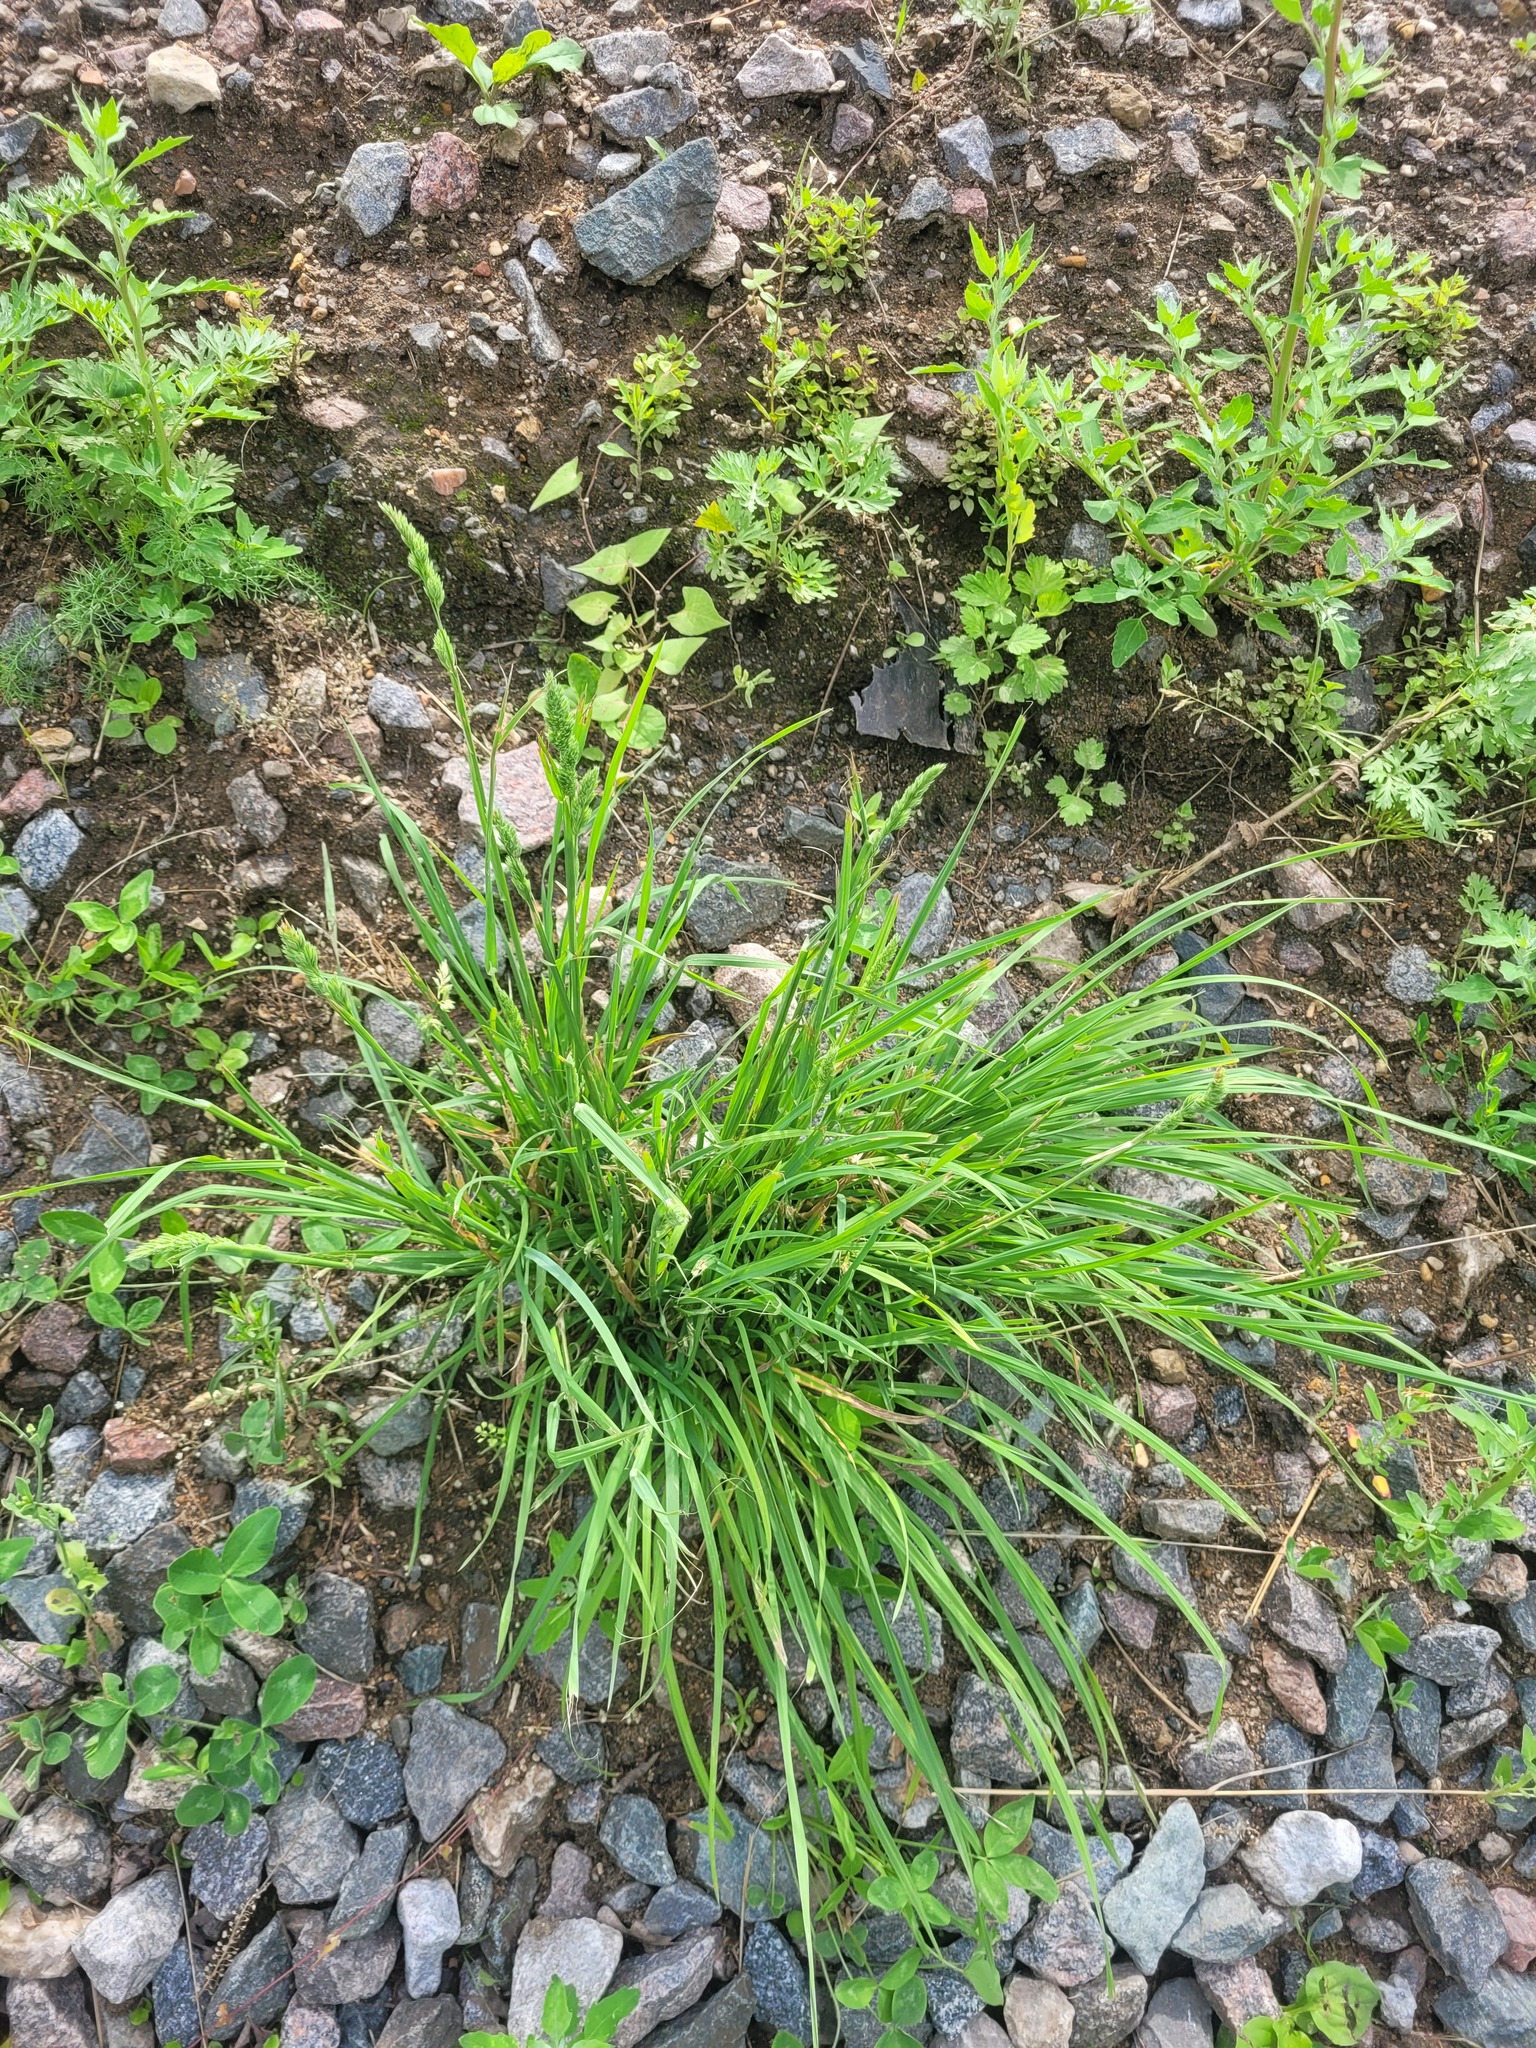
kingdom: Plantae
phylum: Tracheophyta
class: Liliopsida
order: Poales
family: Poaceae
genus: Dactylis
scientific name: Dactylis glomerata
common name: Orchardgrass
